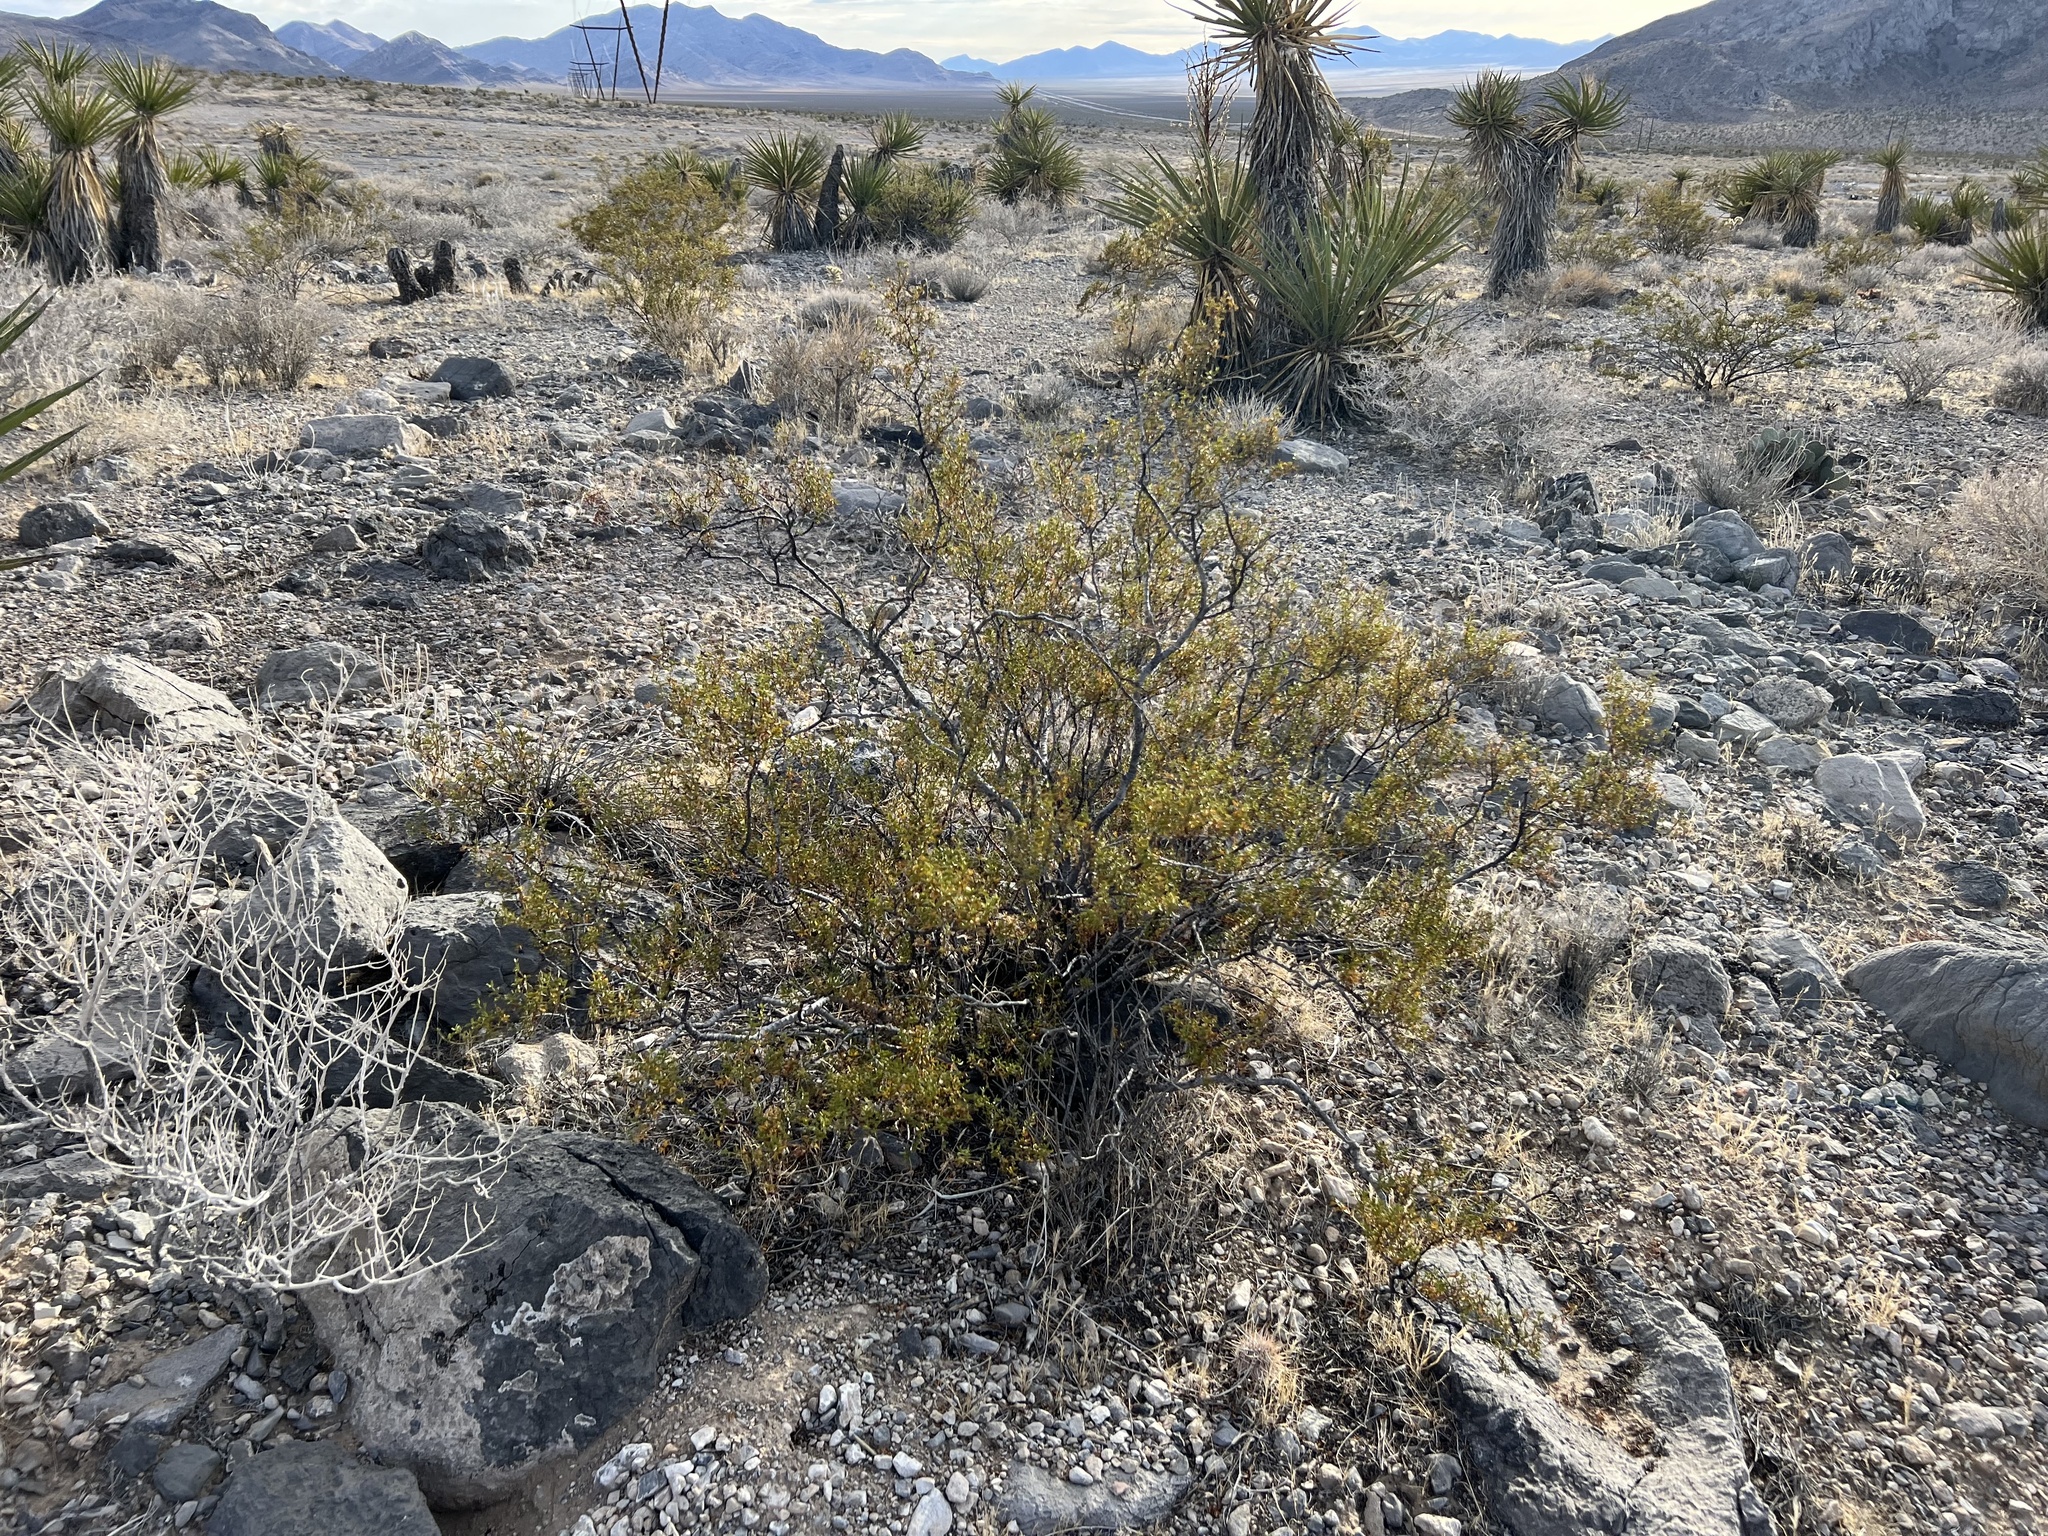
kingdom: Plantae
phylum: Tracheophyta
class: Magnoliopsida
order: Zygophyllales
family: Zygophyllaceae
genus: Larrea
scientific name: Larrea tridentata
